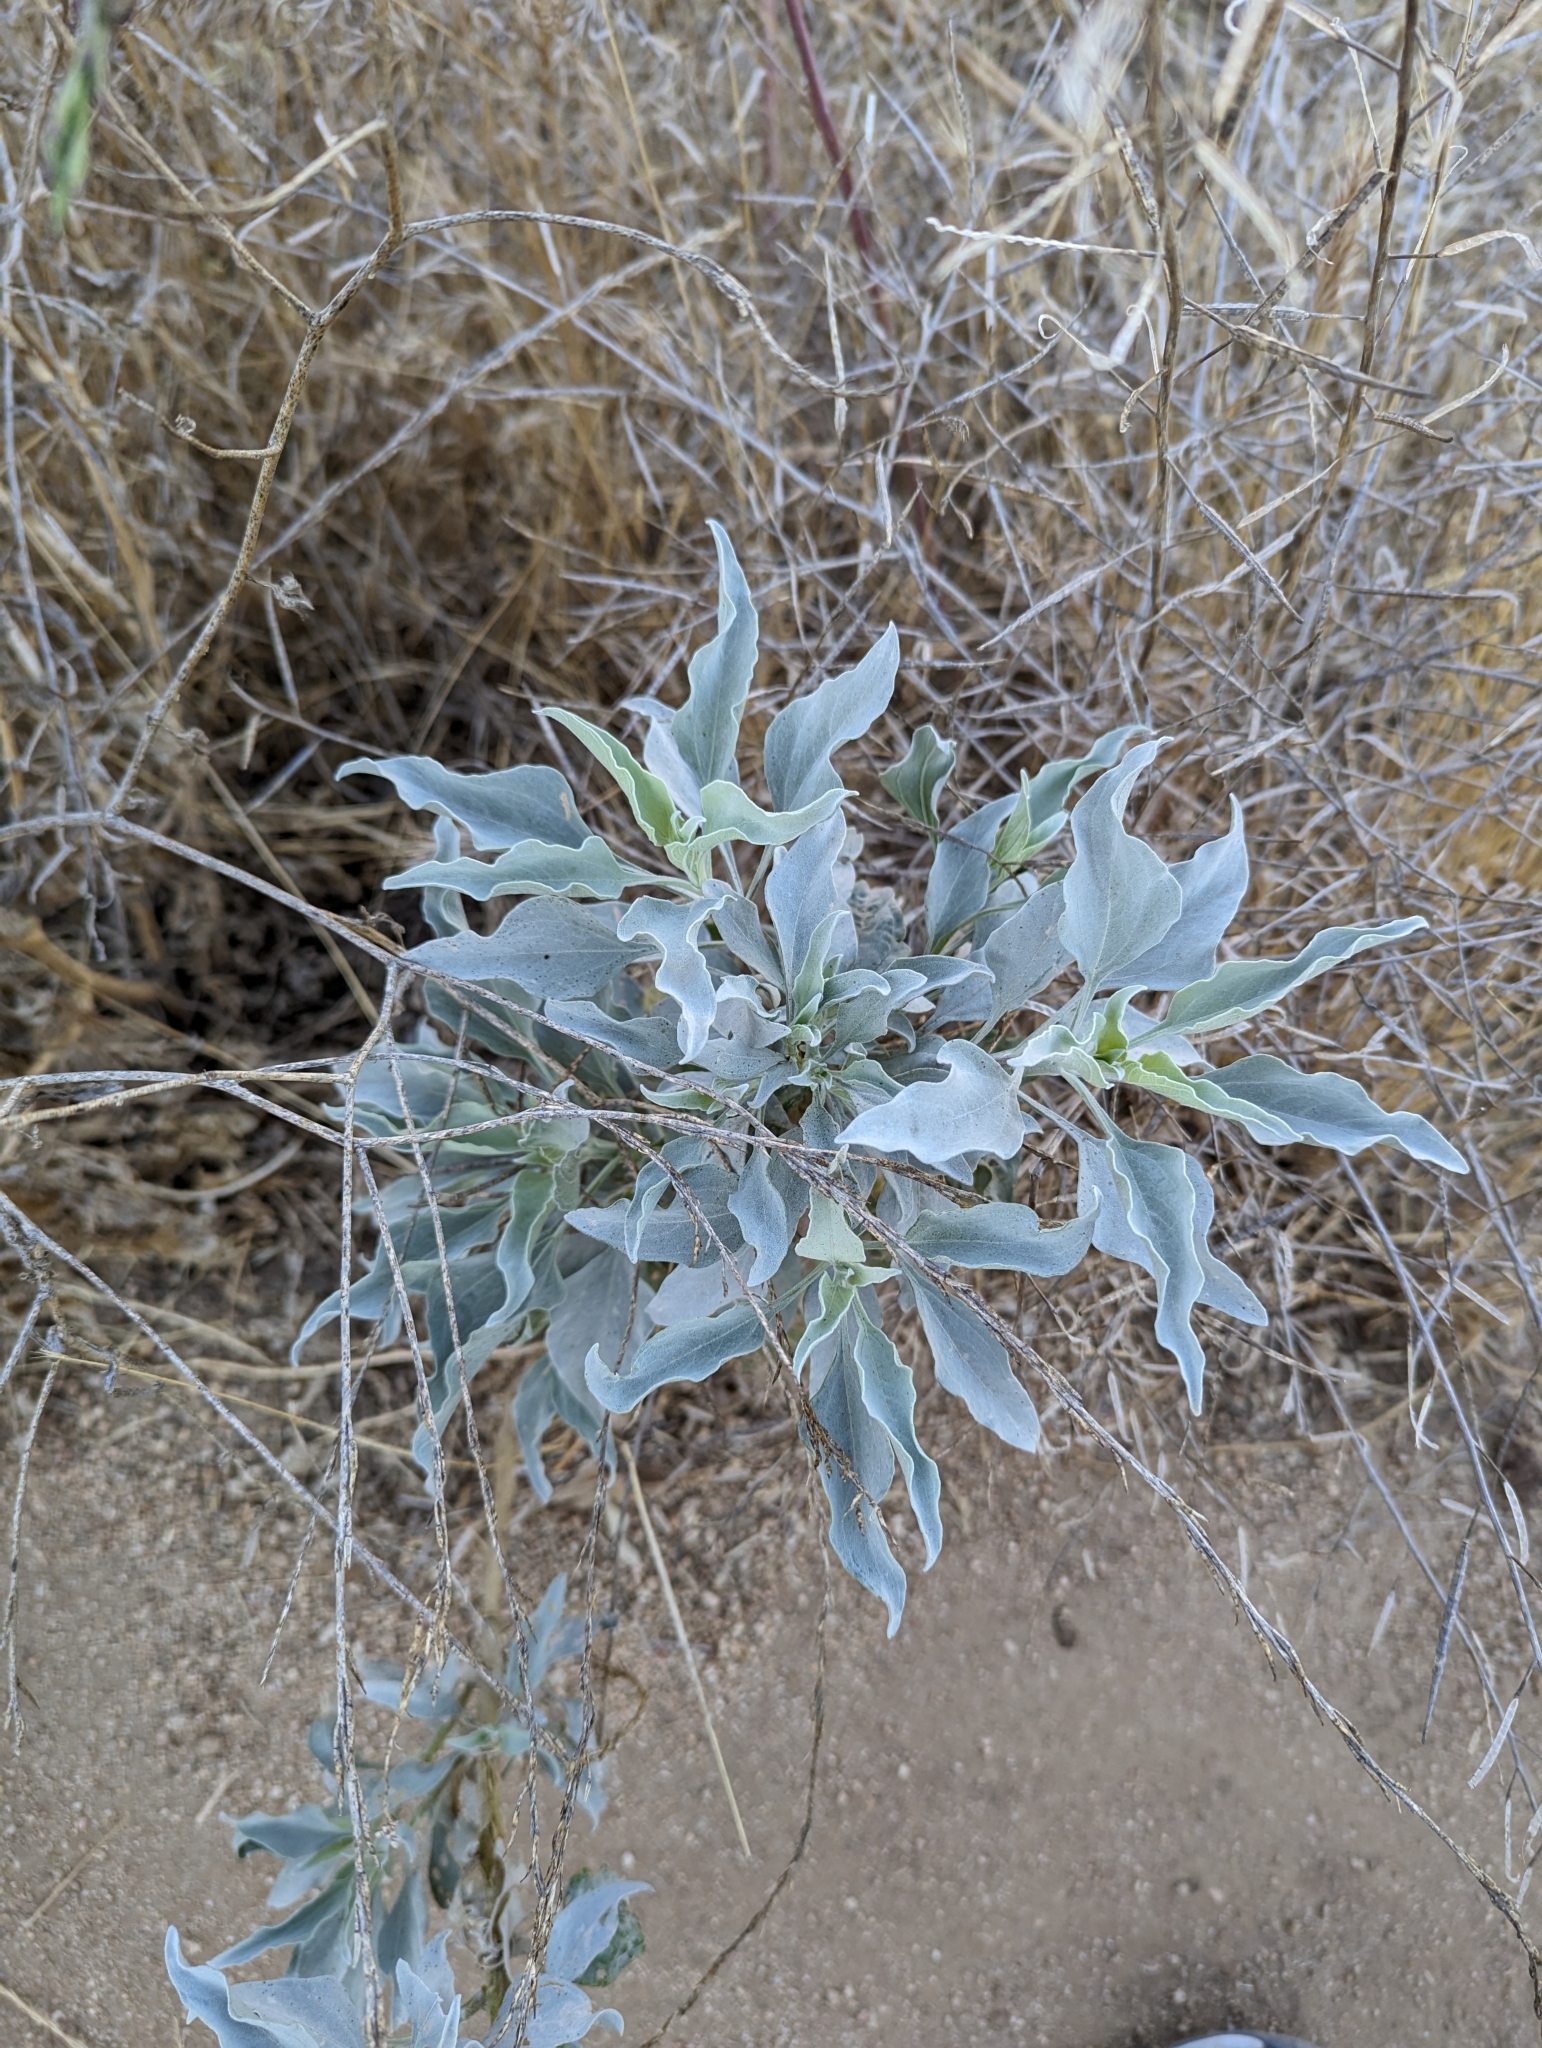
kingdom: Plantae
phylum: Tracheophyta
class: Magnoliopsida
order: Asterales
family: Asteraceae
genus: Encelia
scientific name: Encelia farinosa
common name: Brittlebush
